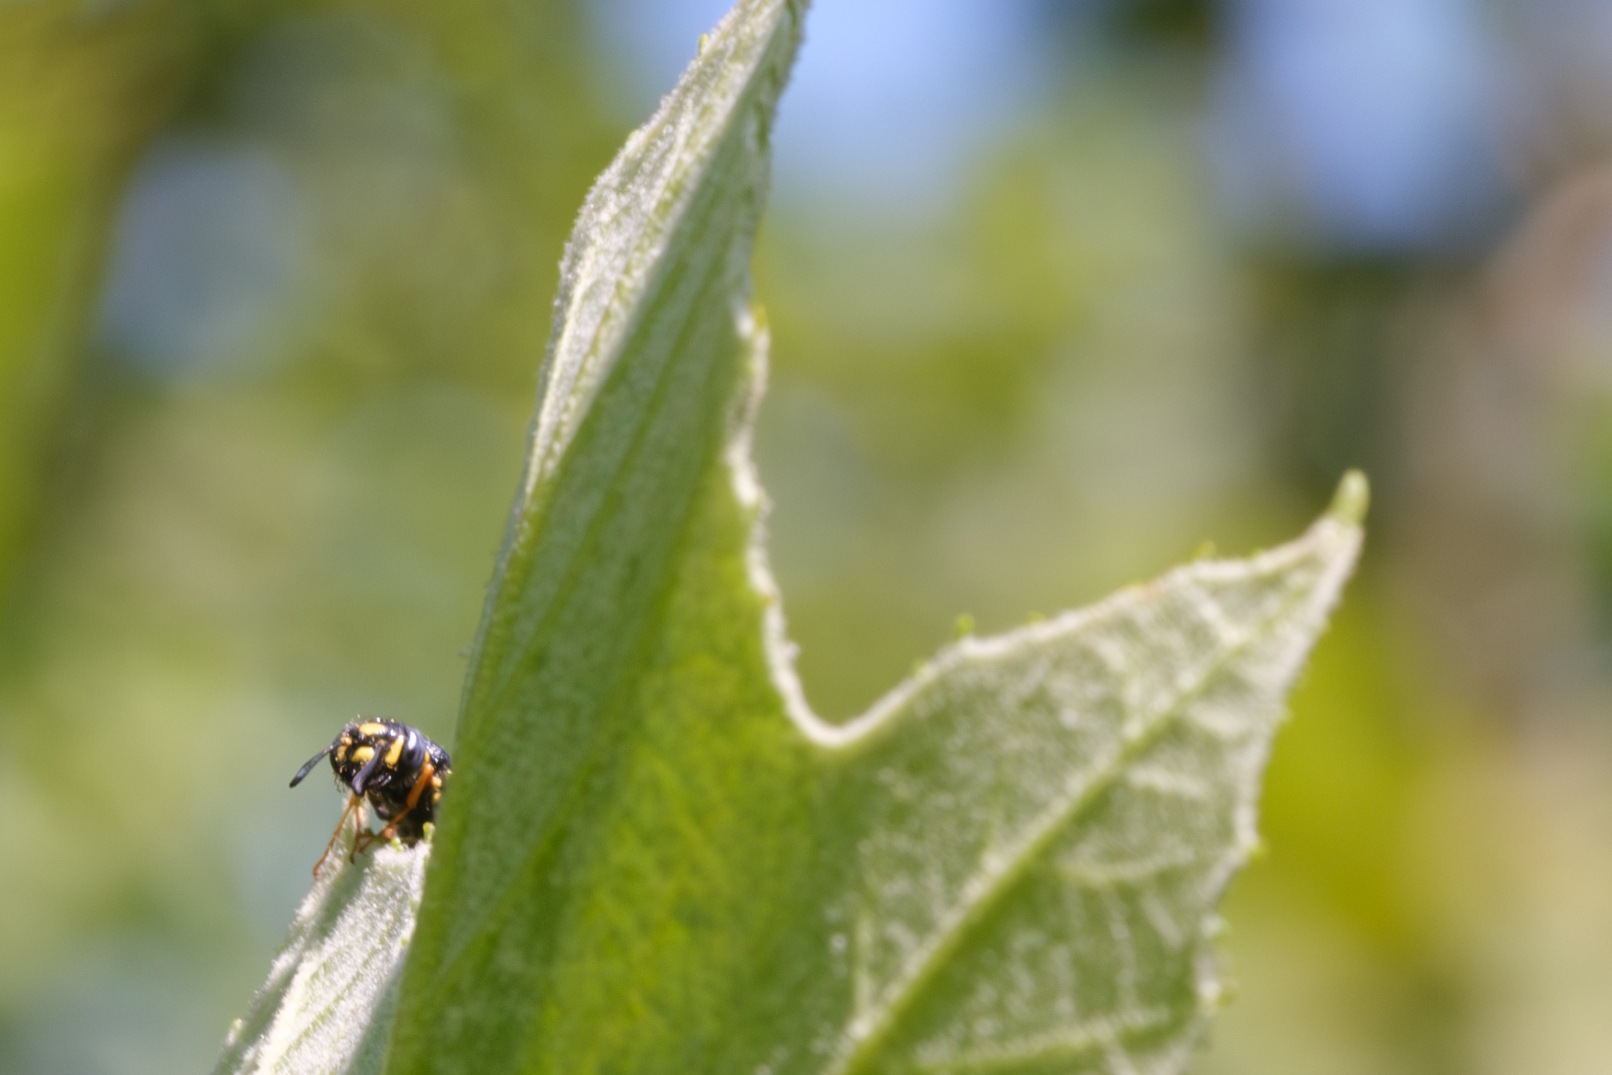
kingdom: Animalia
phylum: Arthropoda
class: Insecta
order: Hymenoptera
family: Crabronidae
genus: Philanthus
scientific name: Philanthus gibbosus
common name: Humped beewolf
